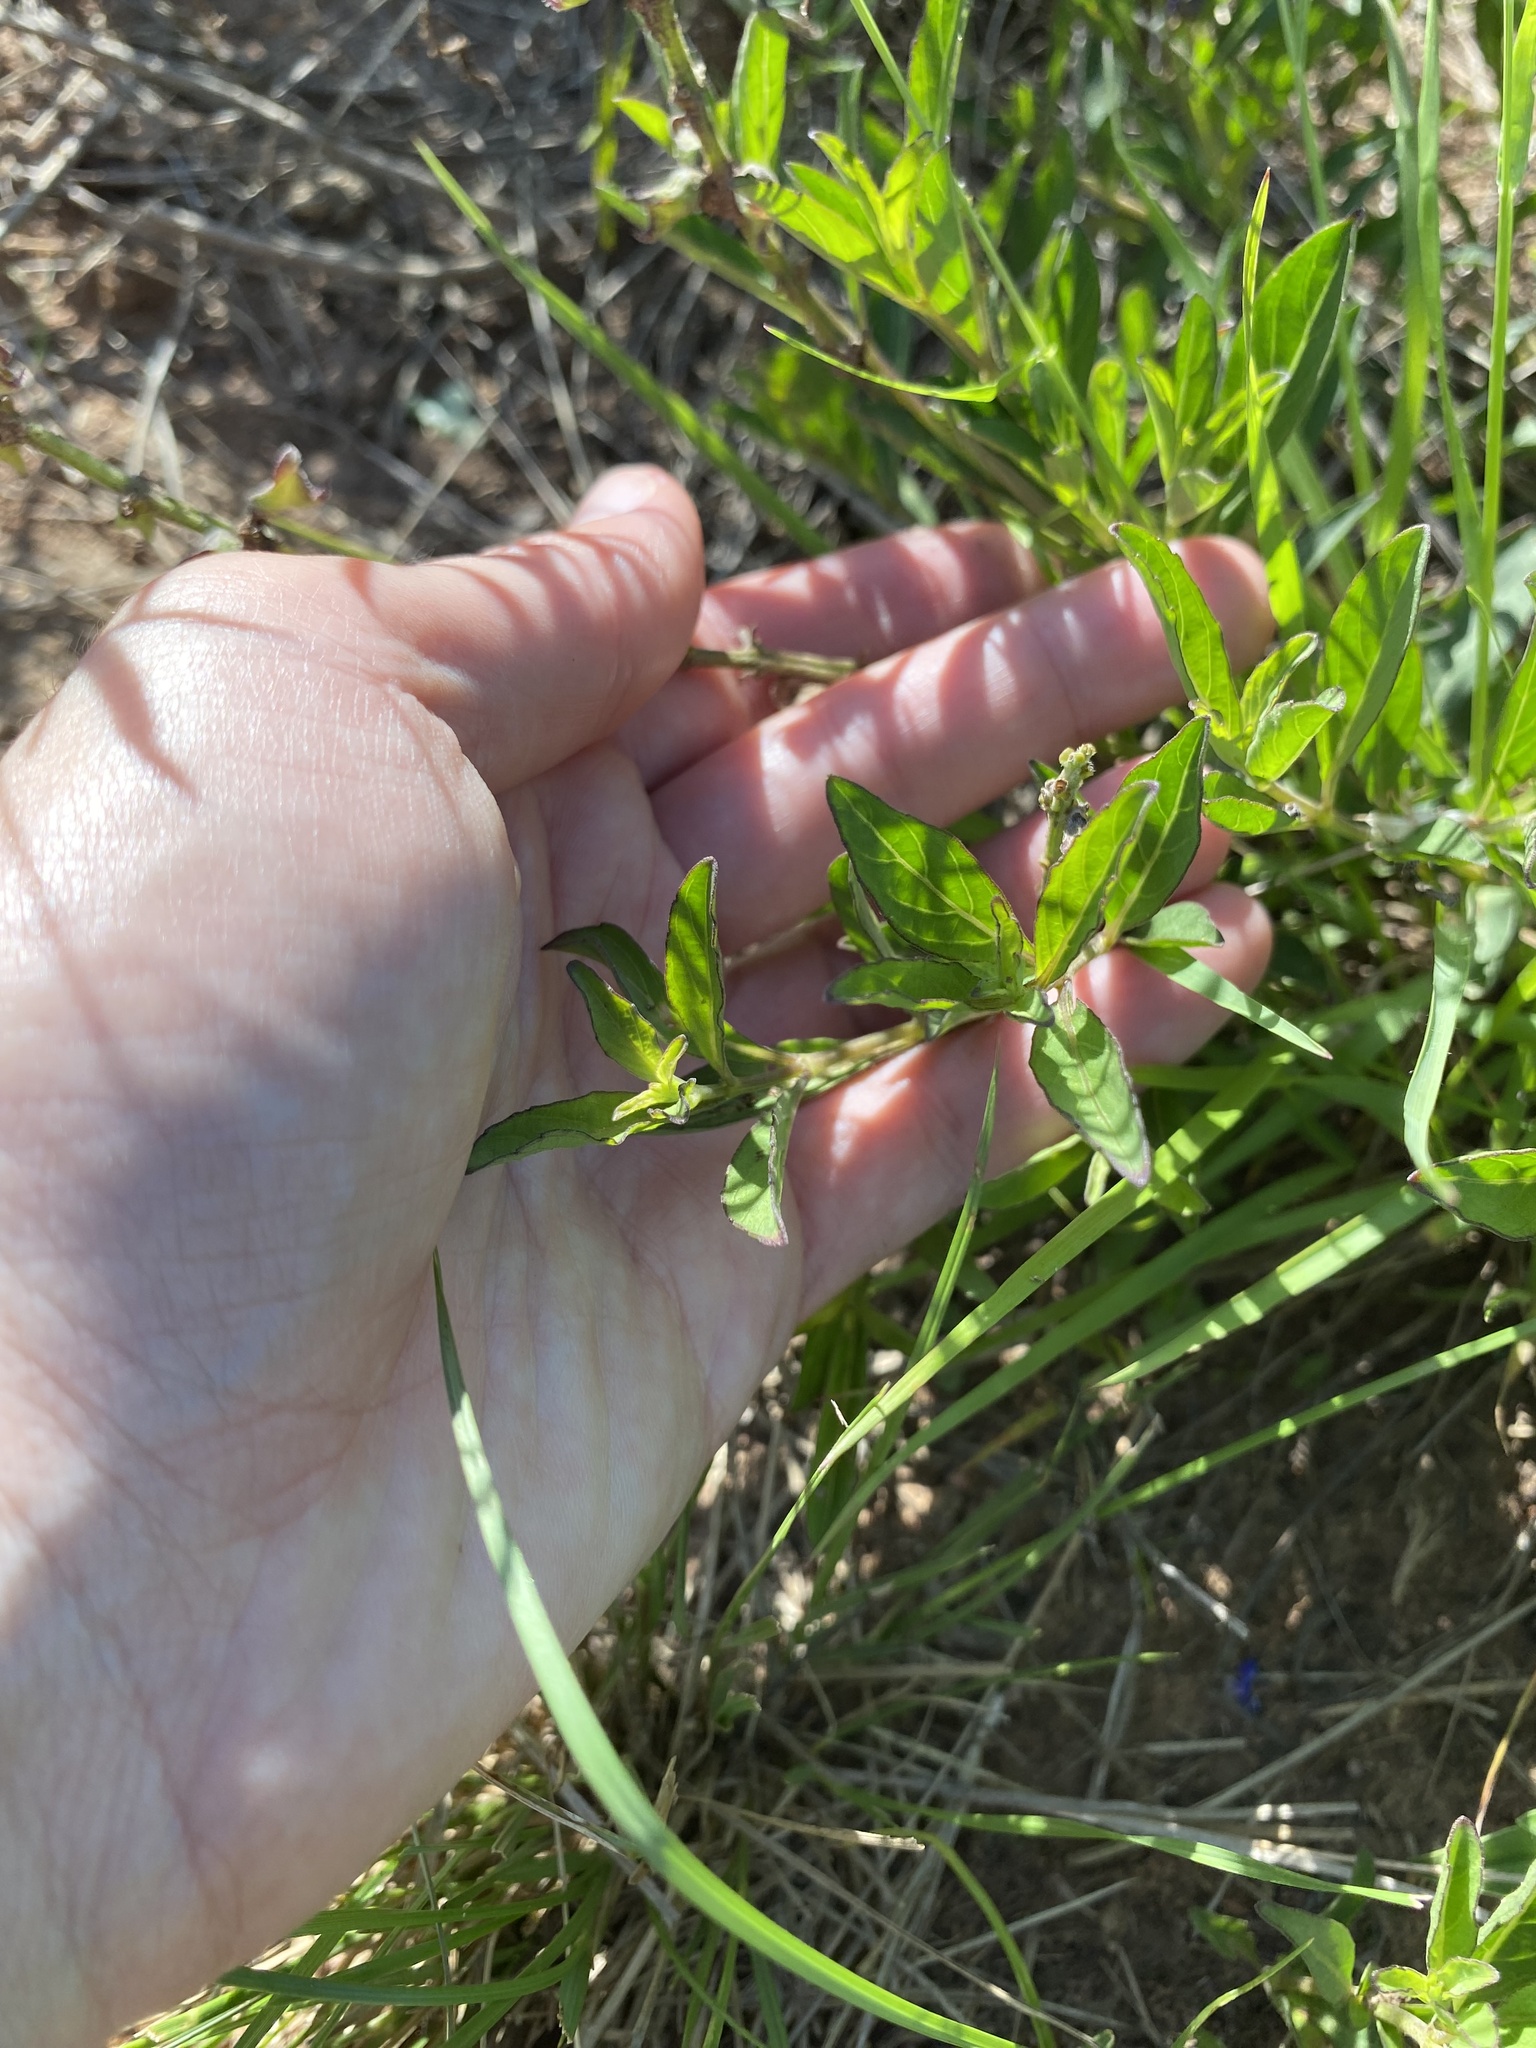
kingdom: Plantae
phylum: Tracheophyta
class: Magnoliopsida
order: Lamiales
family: Lamiaceae
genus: Ocimum
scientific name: Ocimum obovatum
